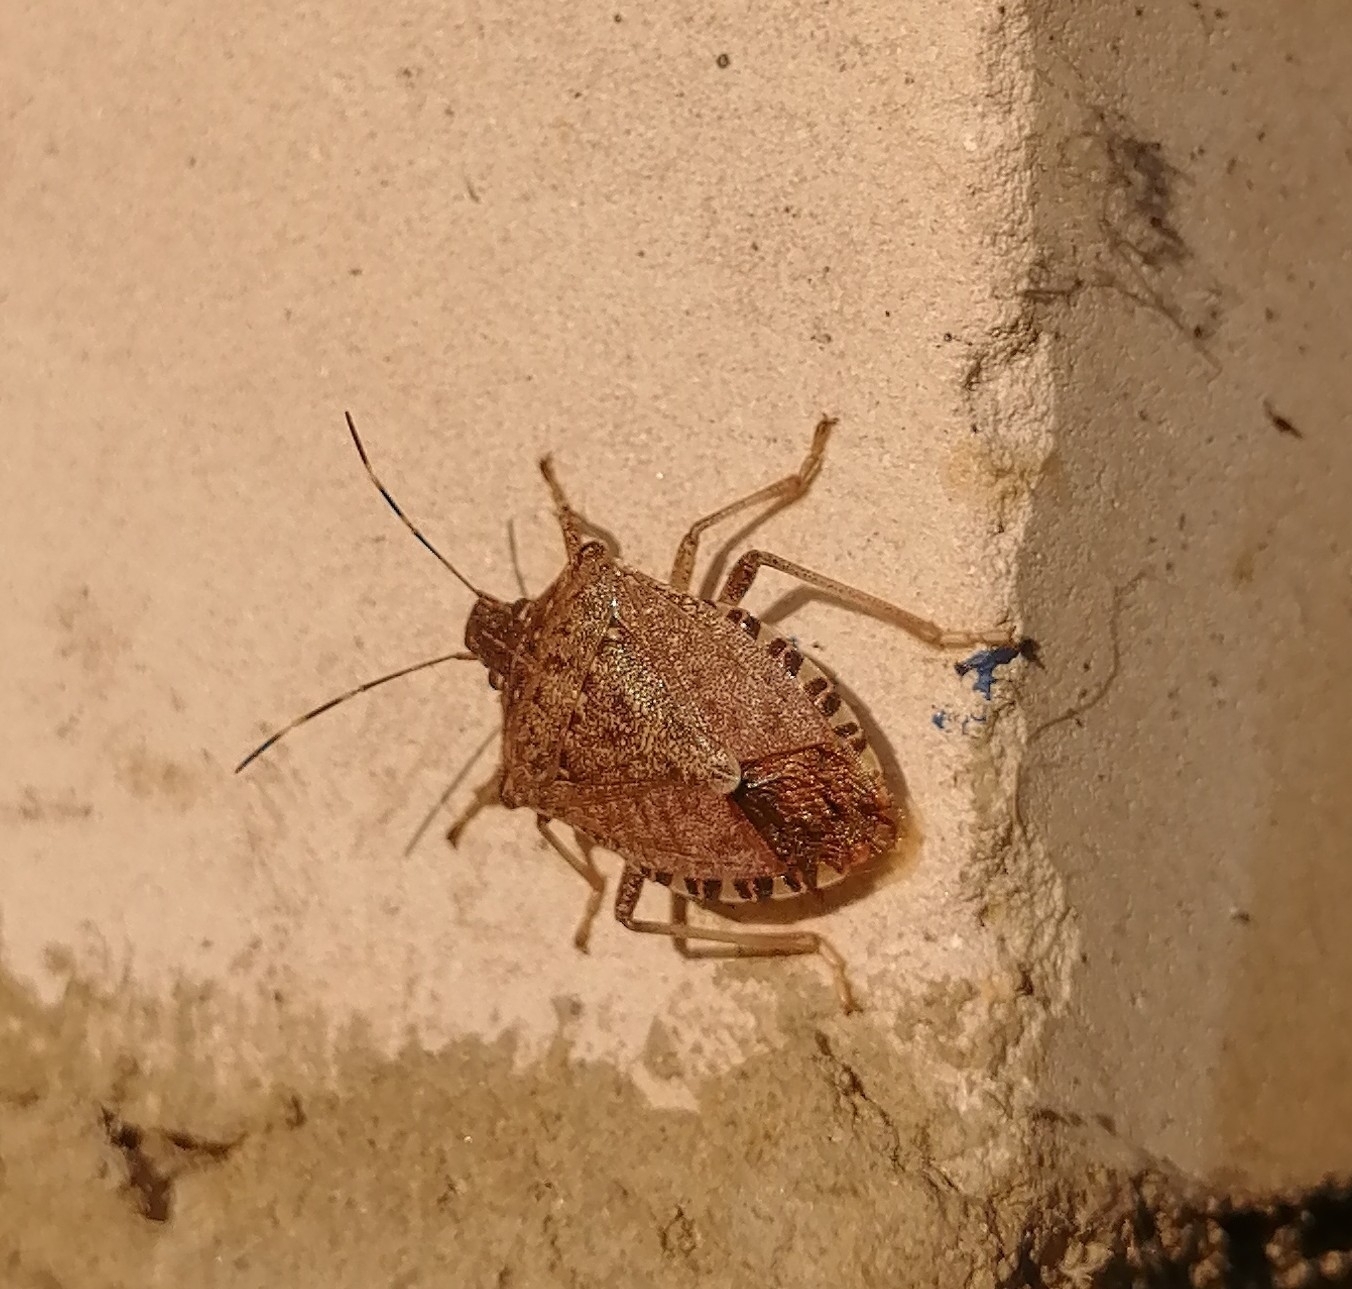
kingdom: Animalia
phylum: Arthropoda
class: Insecta
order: Hemiptera
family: Pentatomidae
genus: Halyomorpha
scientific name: Halyomorpha halys
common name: Brown marmorated stink bug
